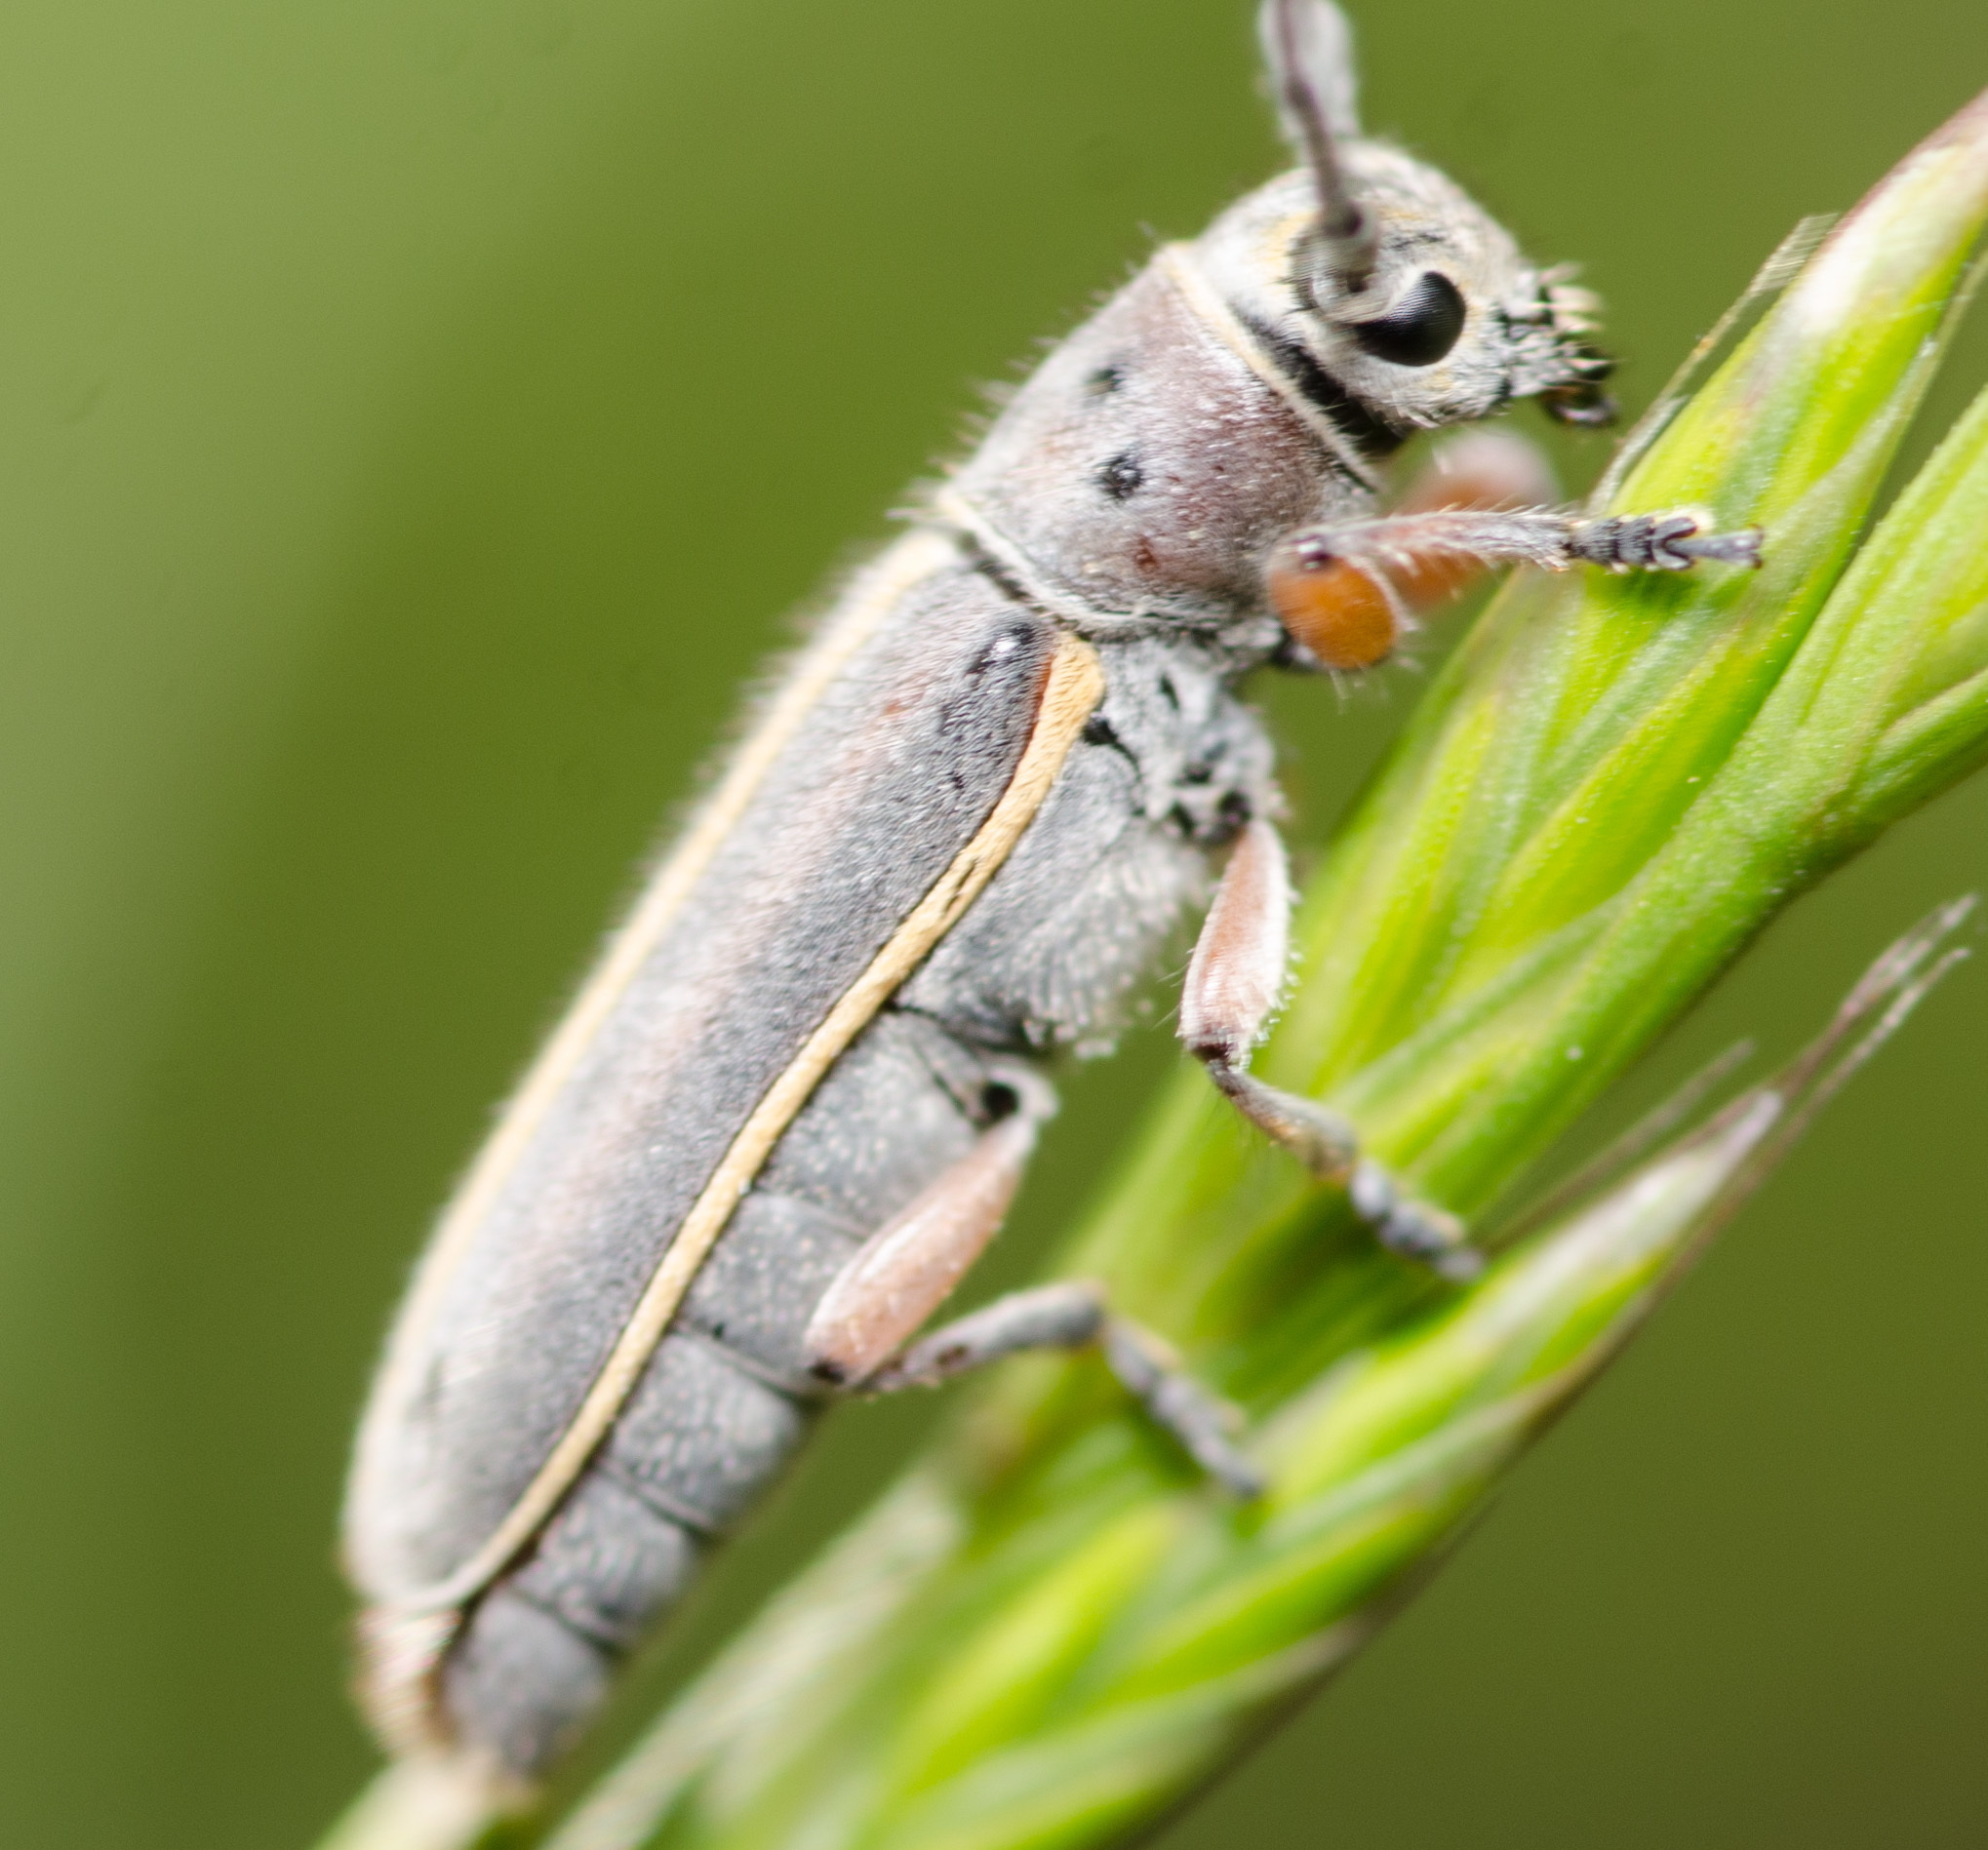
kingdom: Animalia
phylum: Arthropoda
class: Insecta
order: Coleoptera
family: Cerambycidae
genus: Mecas
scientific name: Mecas pergrata
